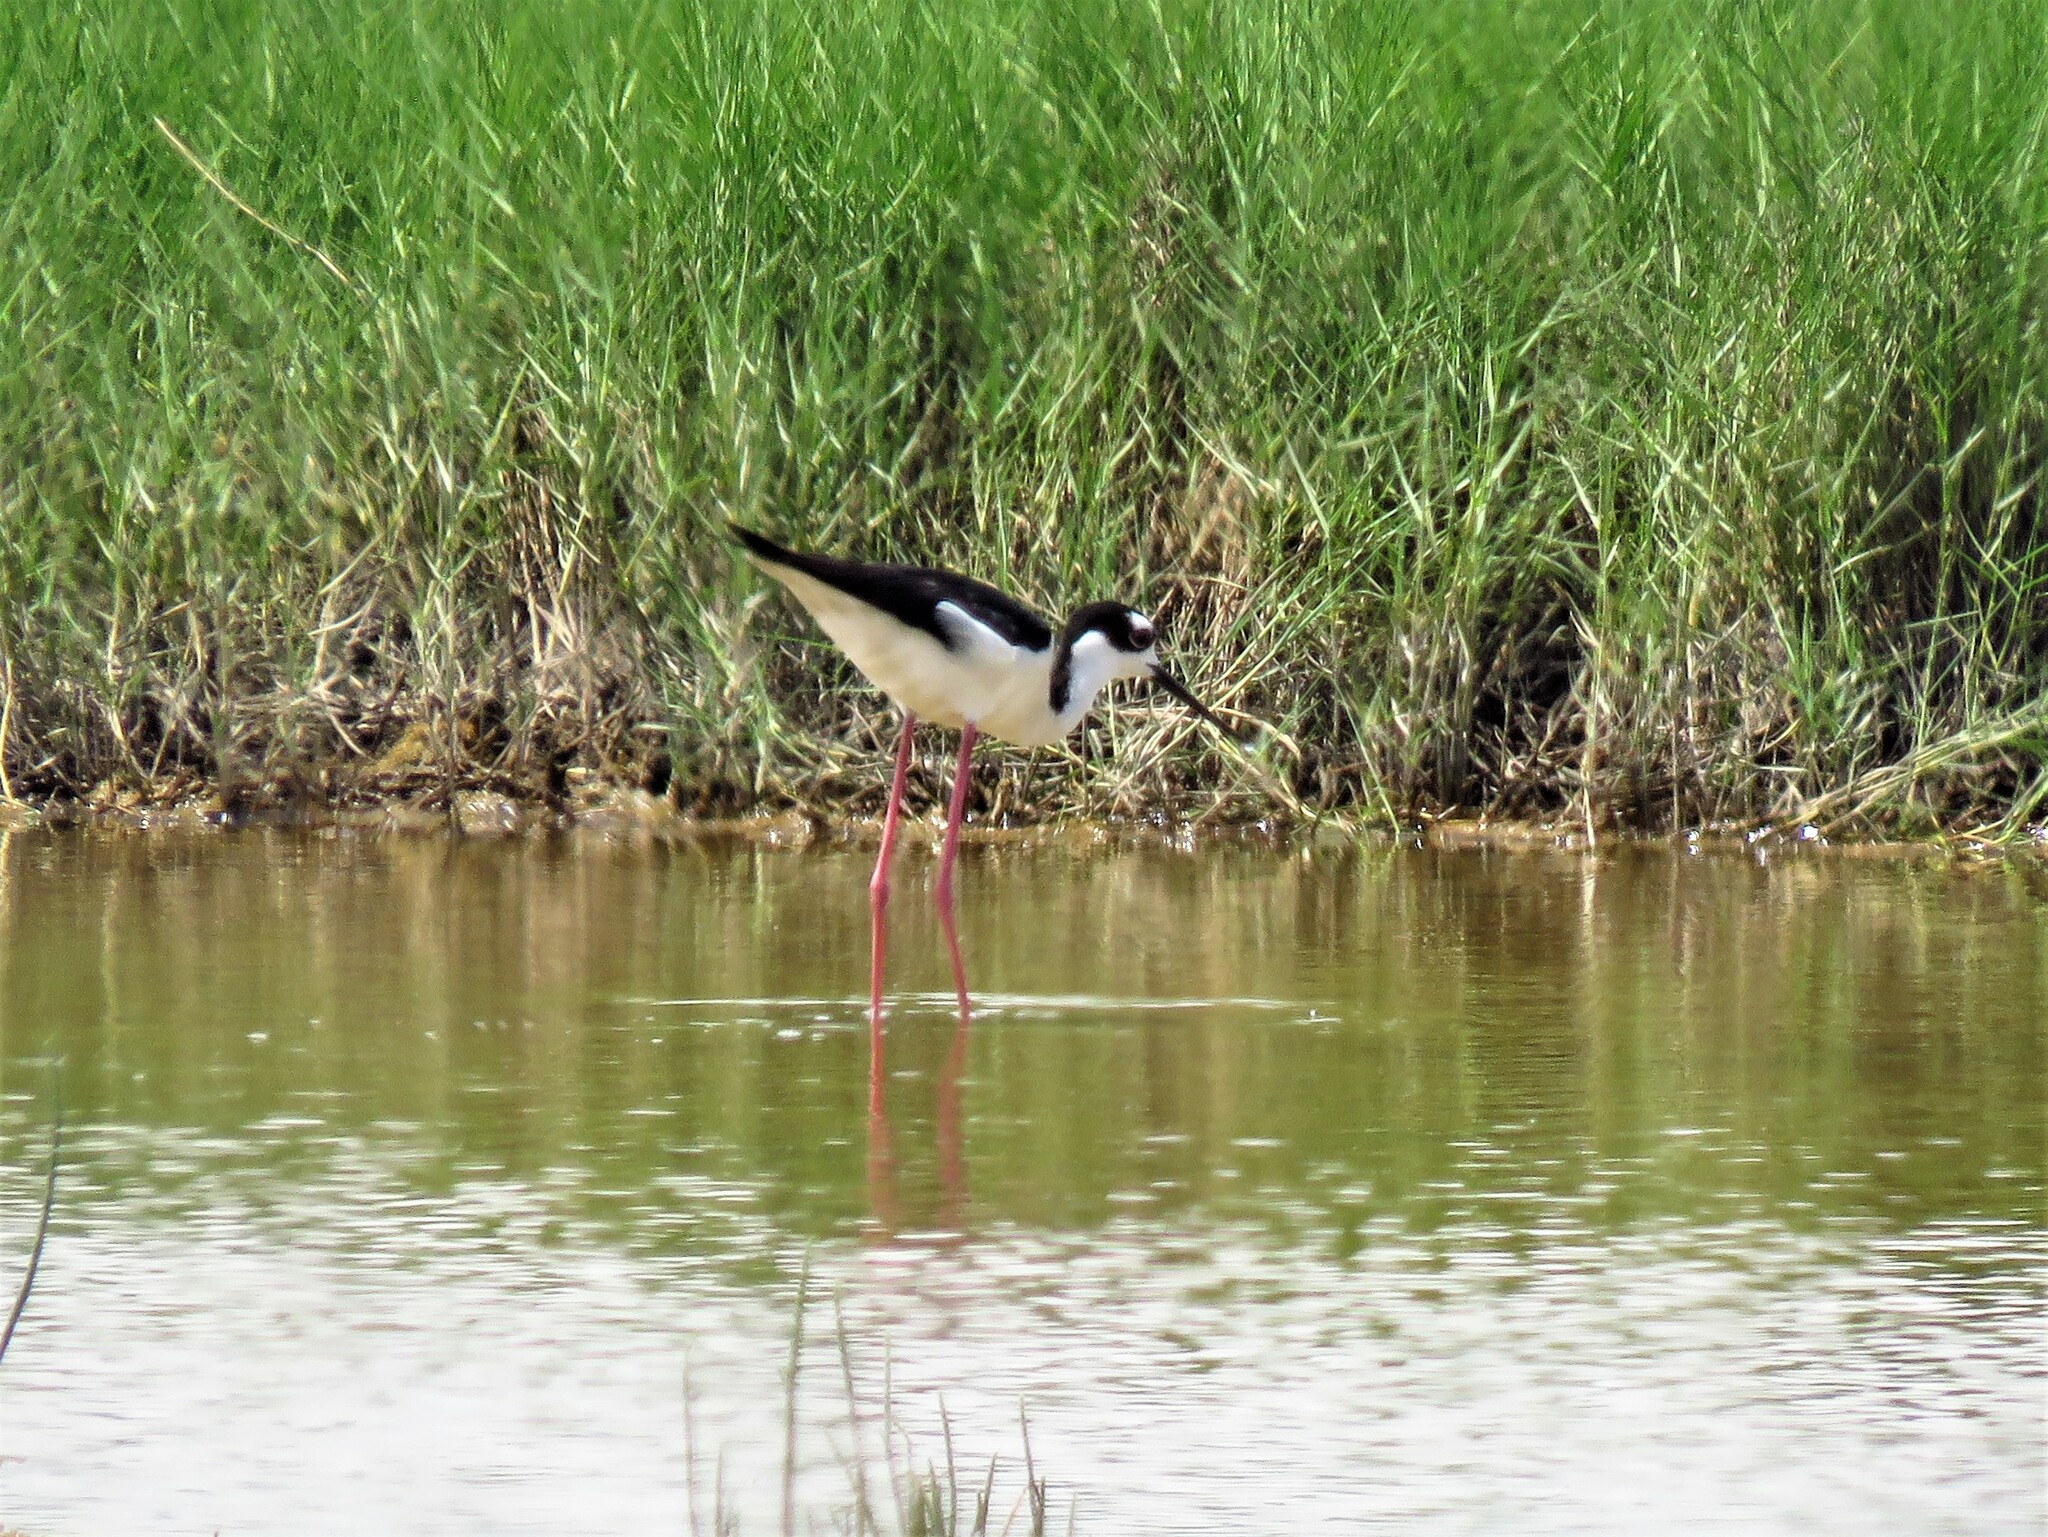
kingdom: Animalia
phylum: Chordata
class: Aves
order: Charadriiformes
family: Recurvirostridae
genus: Himantopus
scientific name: Himantopus mexicanus
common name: Black-necked stilt
